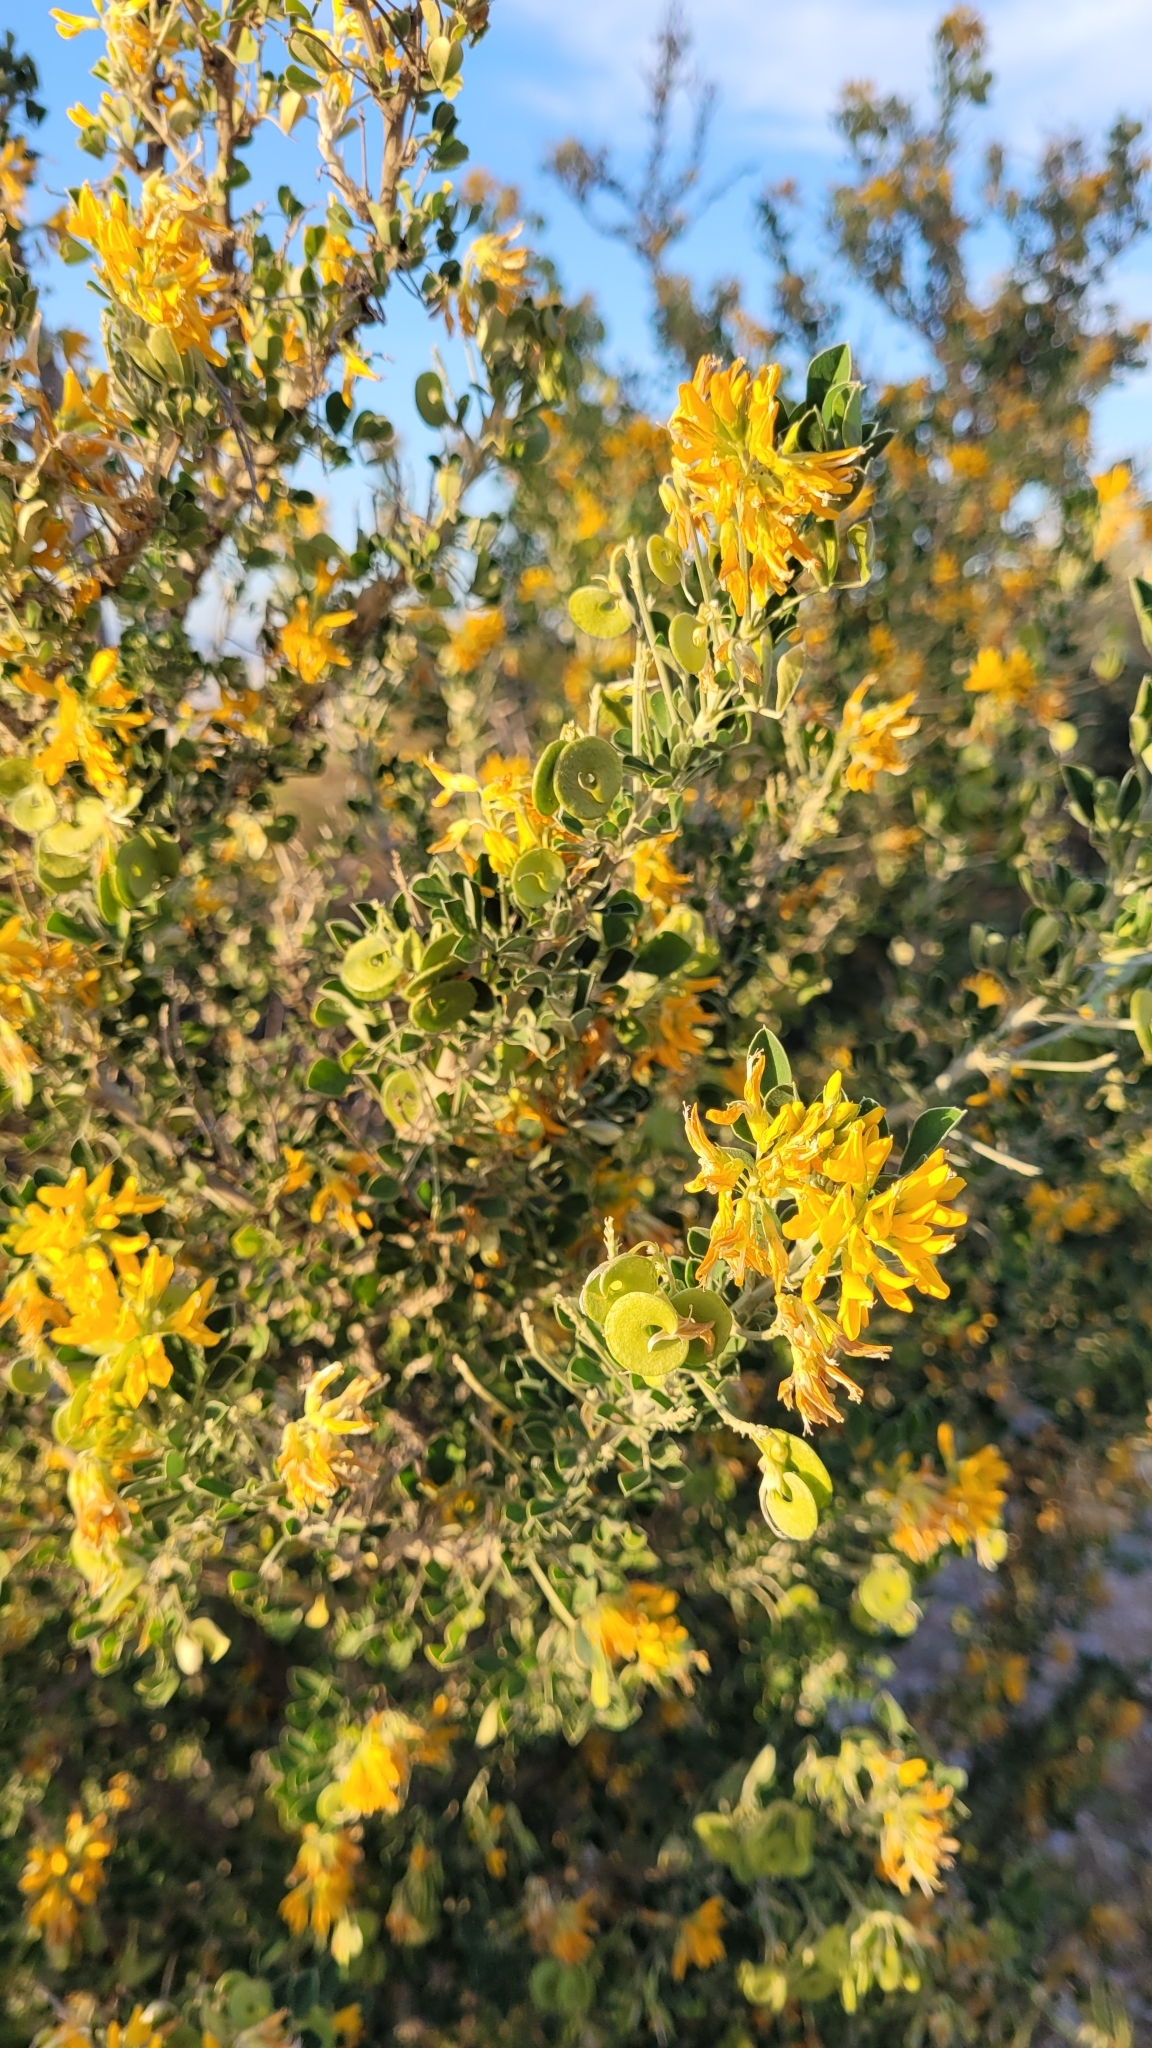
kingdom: Plantae
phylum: Tracheophyta
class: Magnoliopsida
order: Fabales
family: Fabaceae
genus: Medicago
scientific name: Medicago arborea
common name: Moon trefoil
